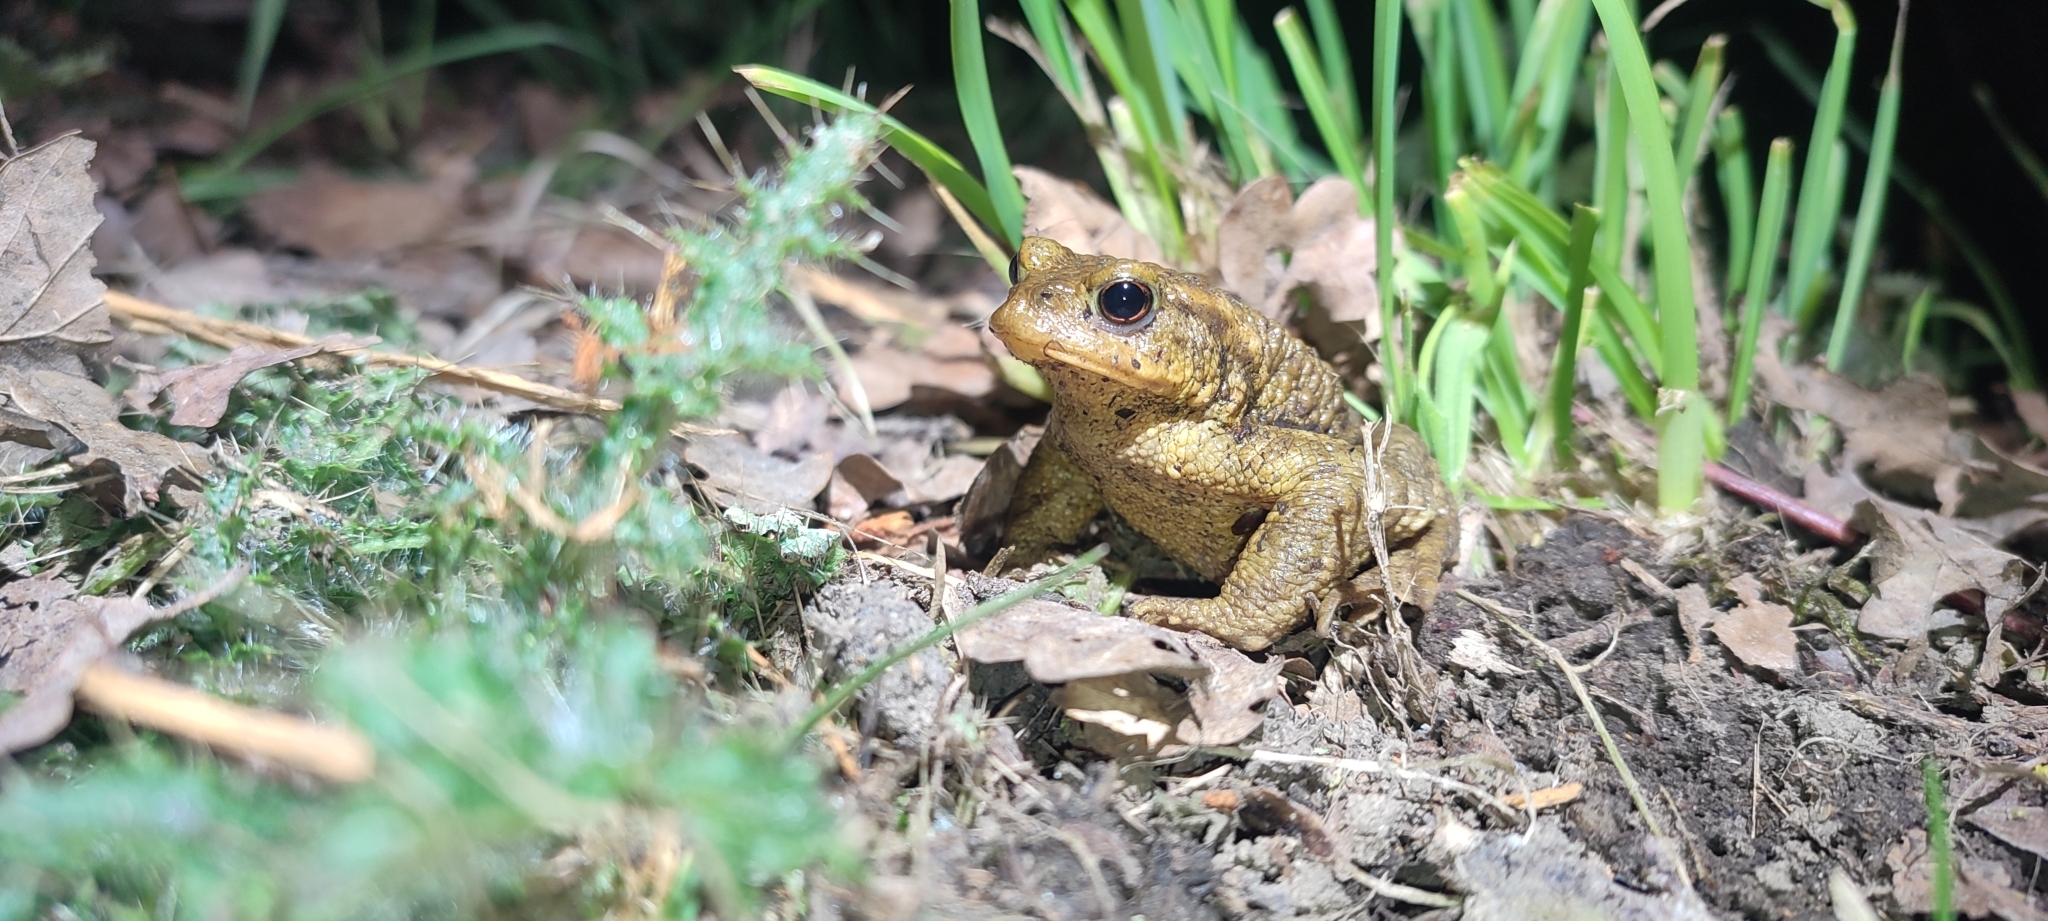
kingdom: Animalia
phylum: Chordata
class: Amphibia
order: Anura
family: Bufonidae
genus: Bufo
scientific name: Bufo spinosus
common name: Western common toad
